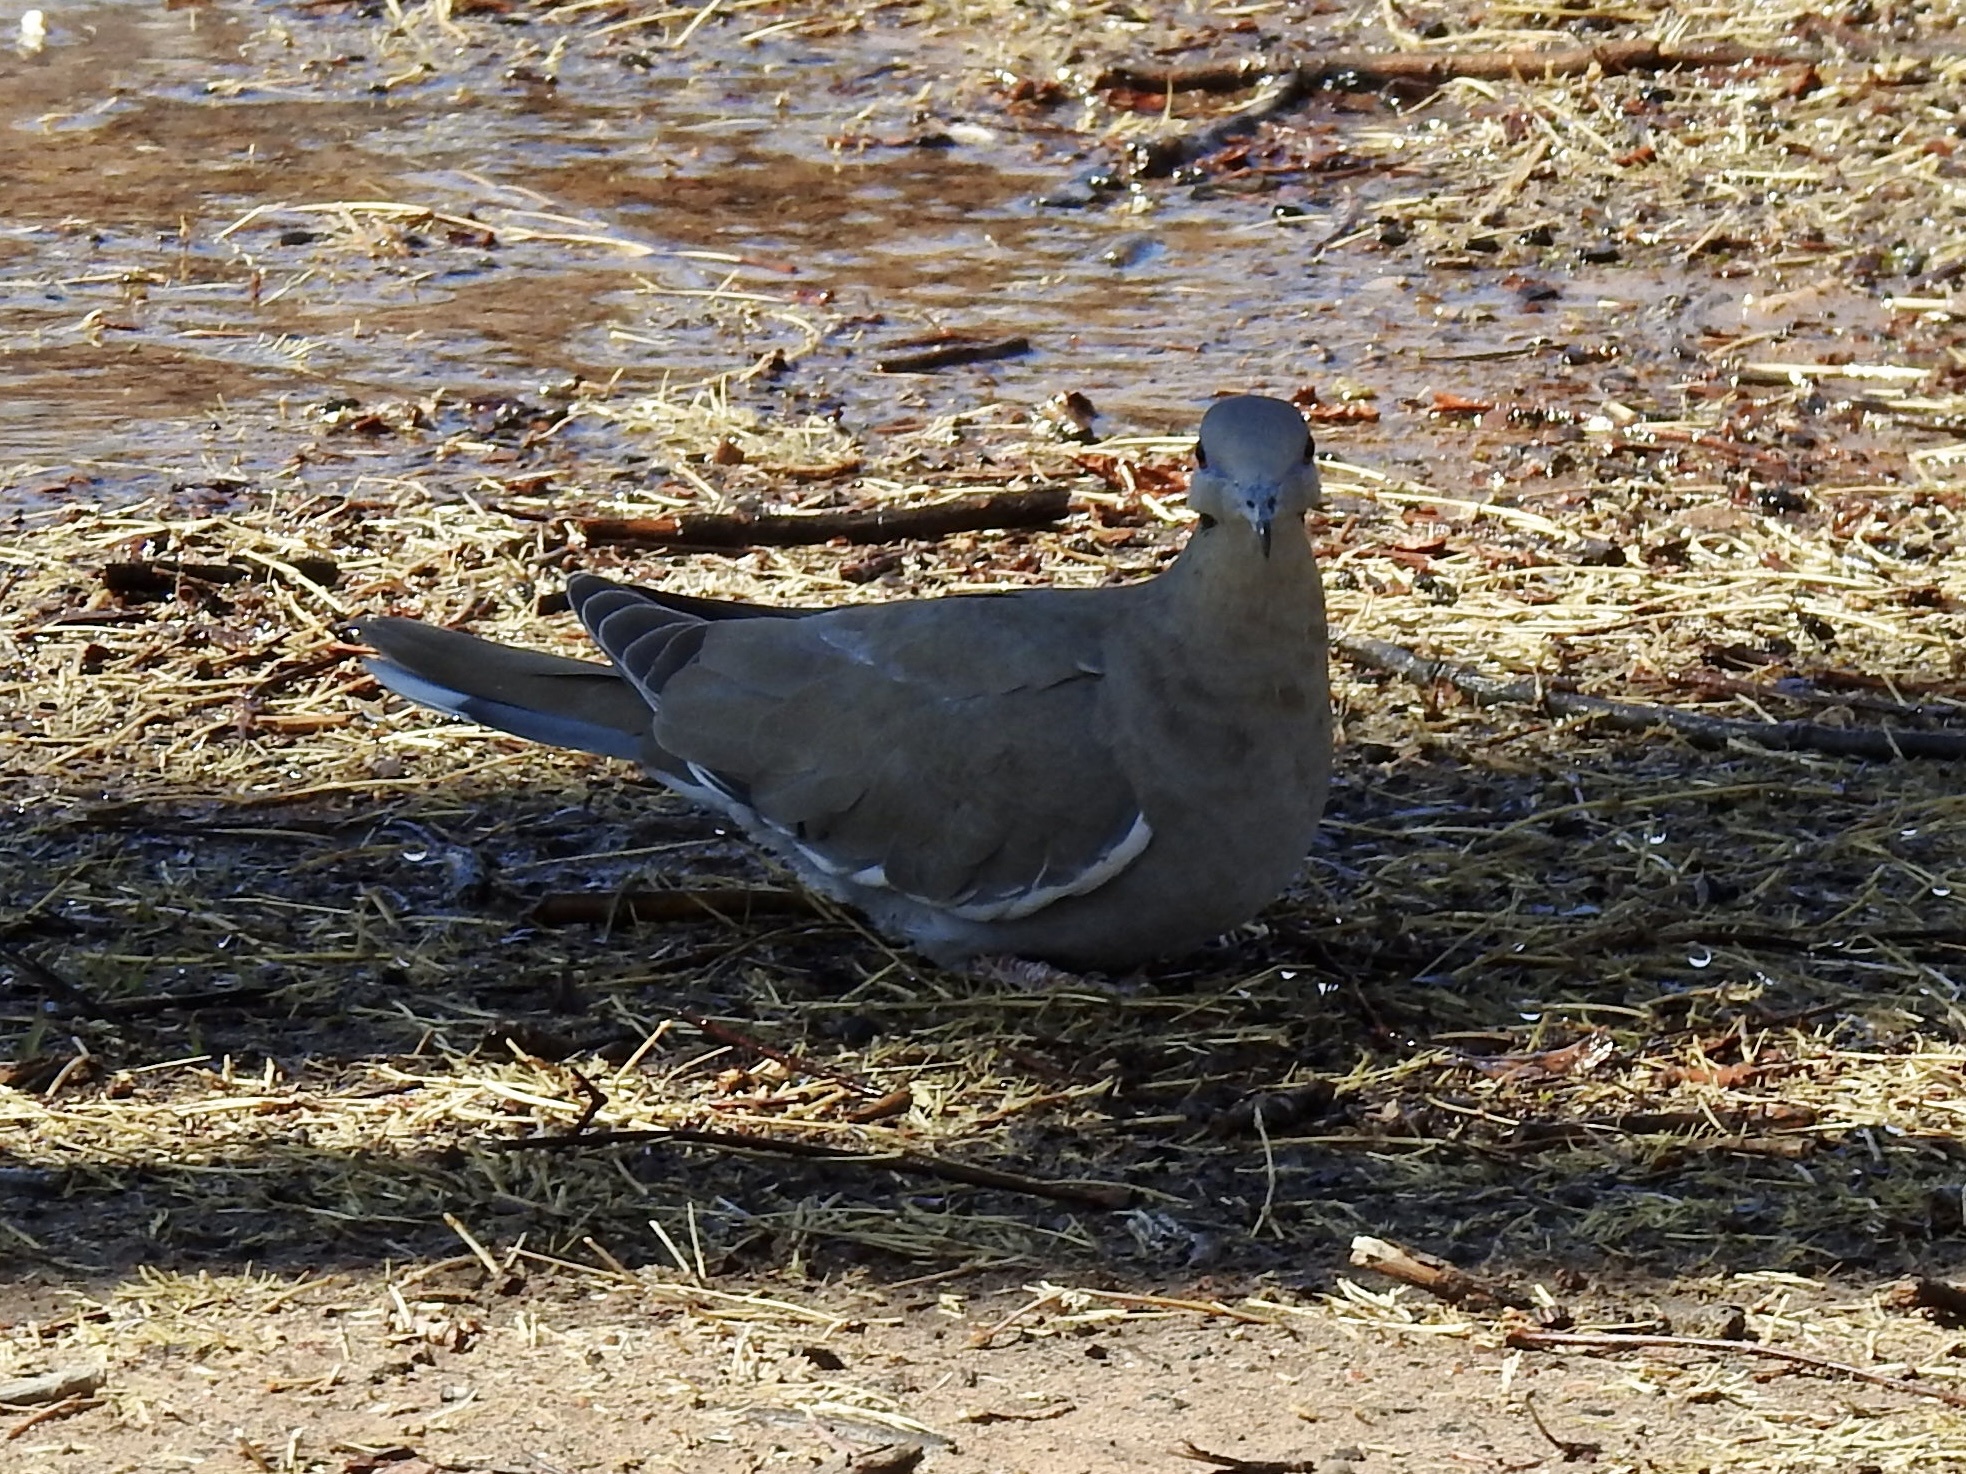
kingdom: Animalia
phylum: Chordata
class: Aves
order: Columbiformes
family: Columbidae
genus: Zenaida
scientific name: Zenaida asiatica
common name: White-winged dove
